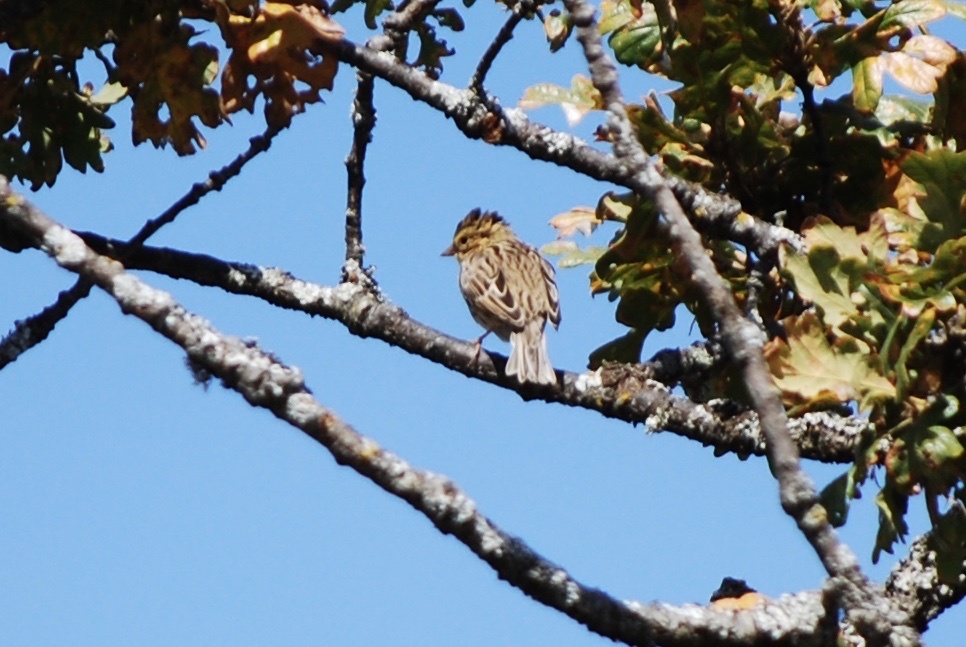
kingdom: Animalia
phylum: Chordata
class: Aves
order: Passeriformes
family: Passerellidae
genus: Passerculus
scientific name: Passerculus sandwichensis
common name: Savannah sparrow
